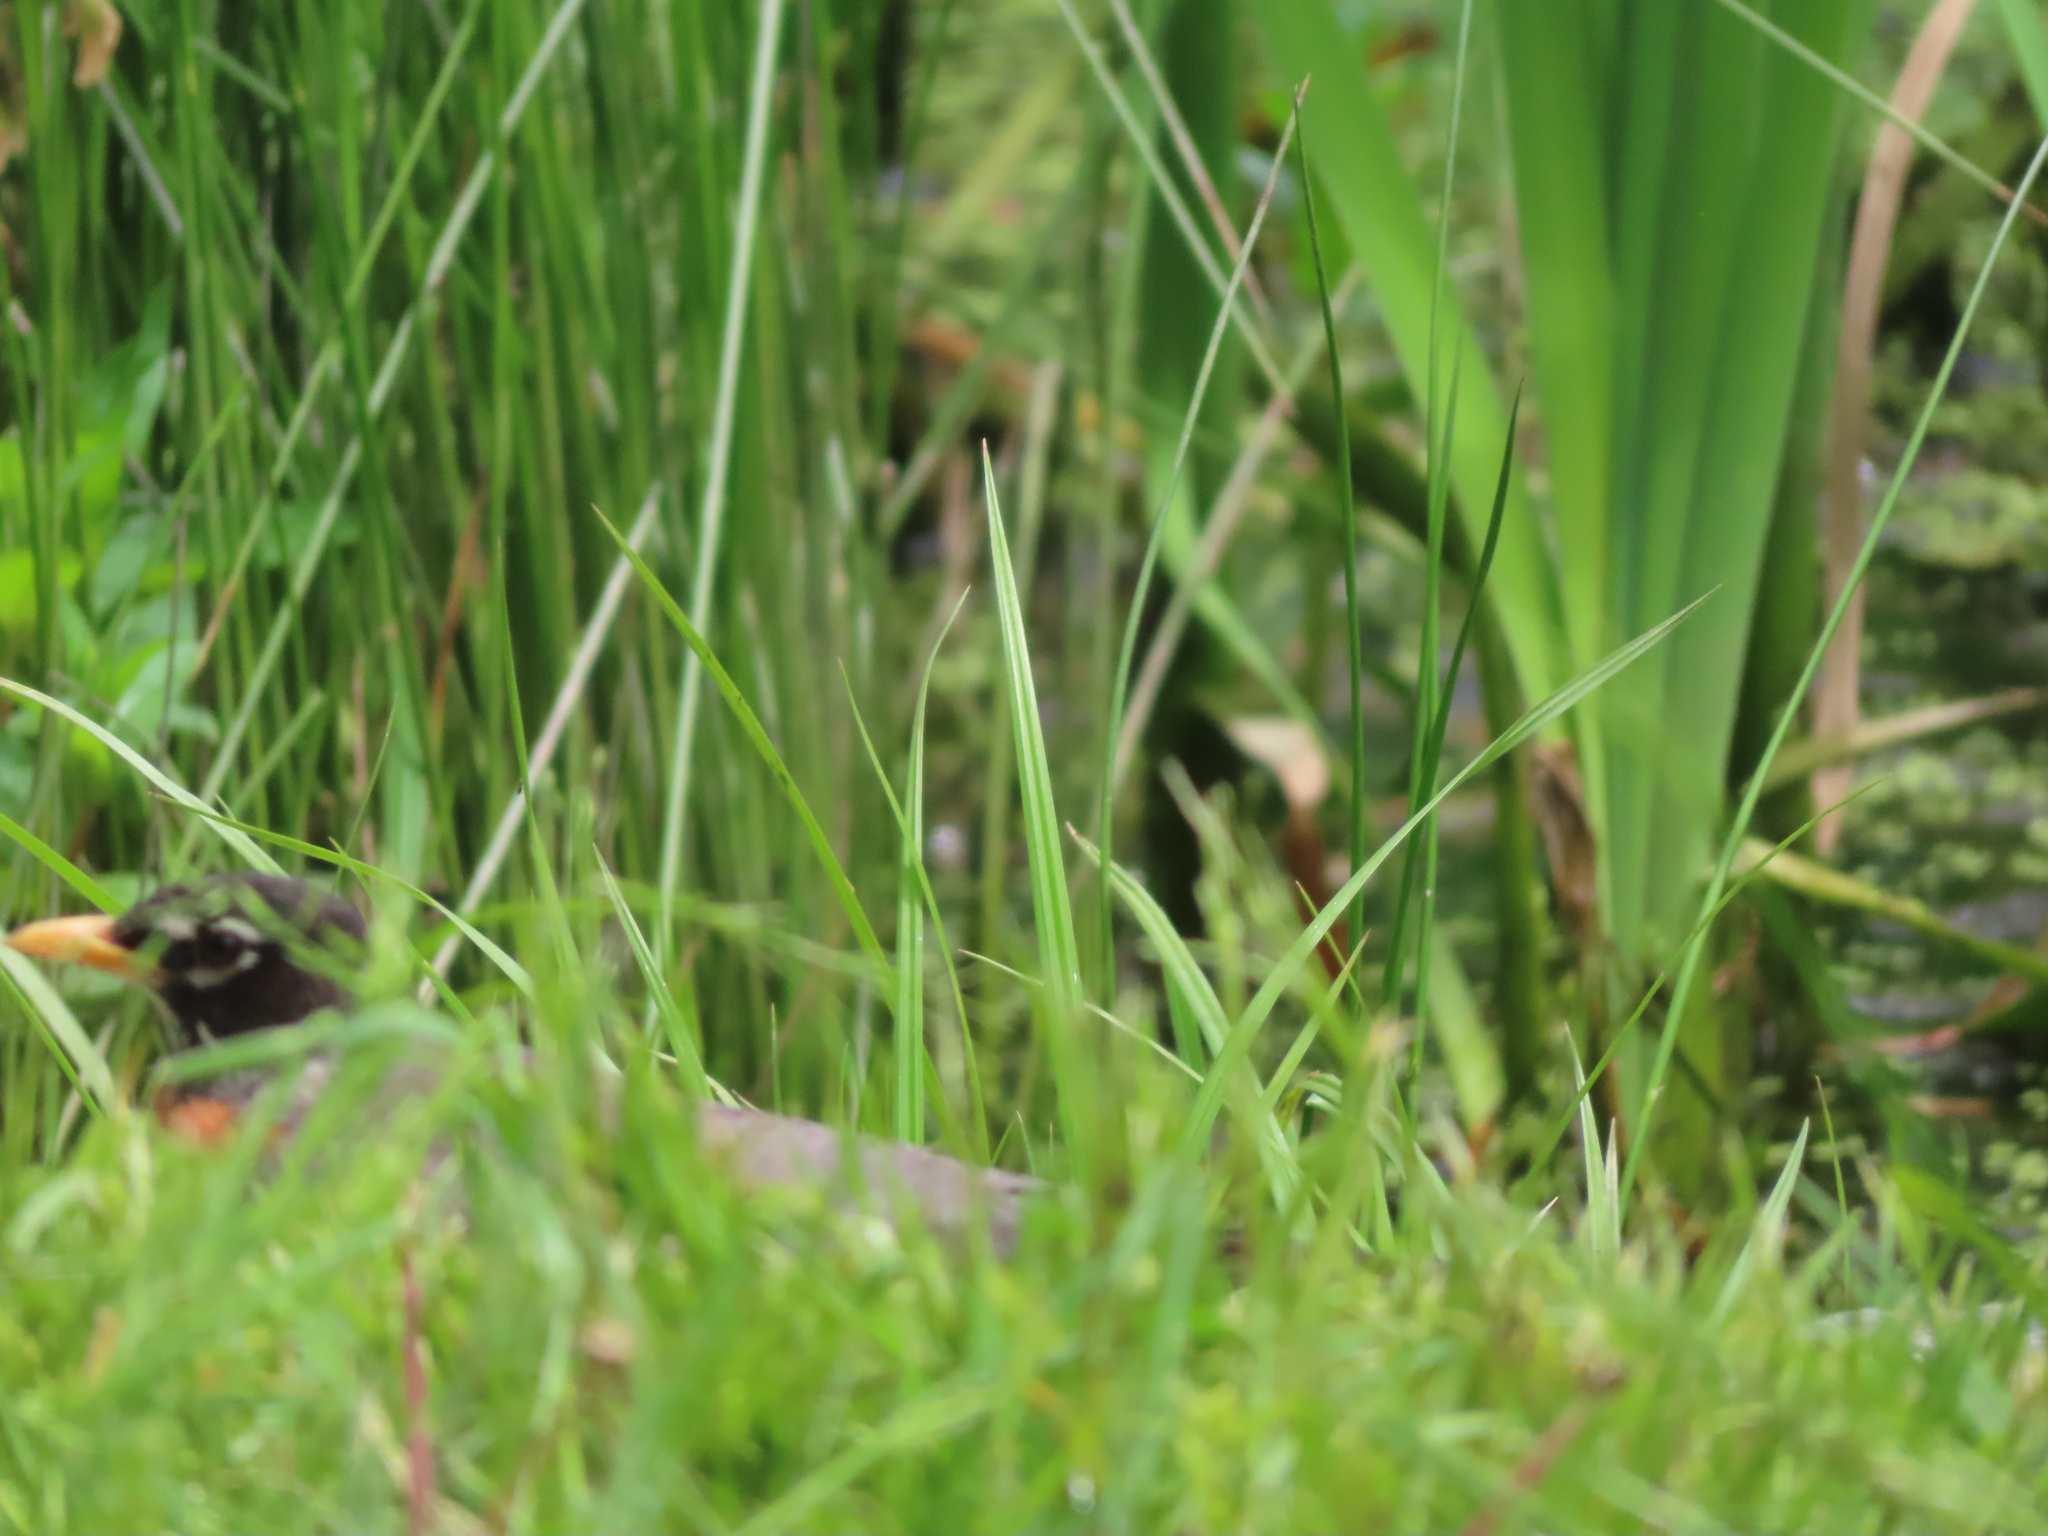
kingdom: Animalia
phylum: Chordata
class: Aves
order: Passeriformes
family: Turdidae
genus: Turdus
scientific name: Turdus migratorius
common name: American robin
